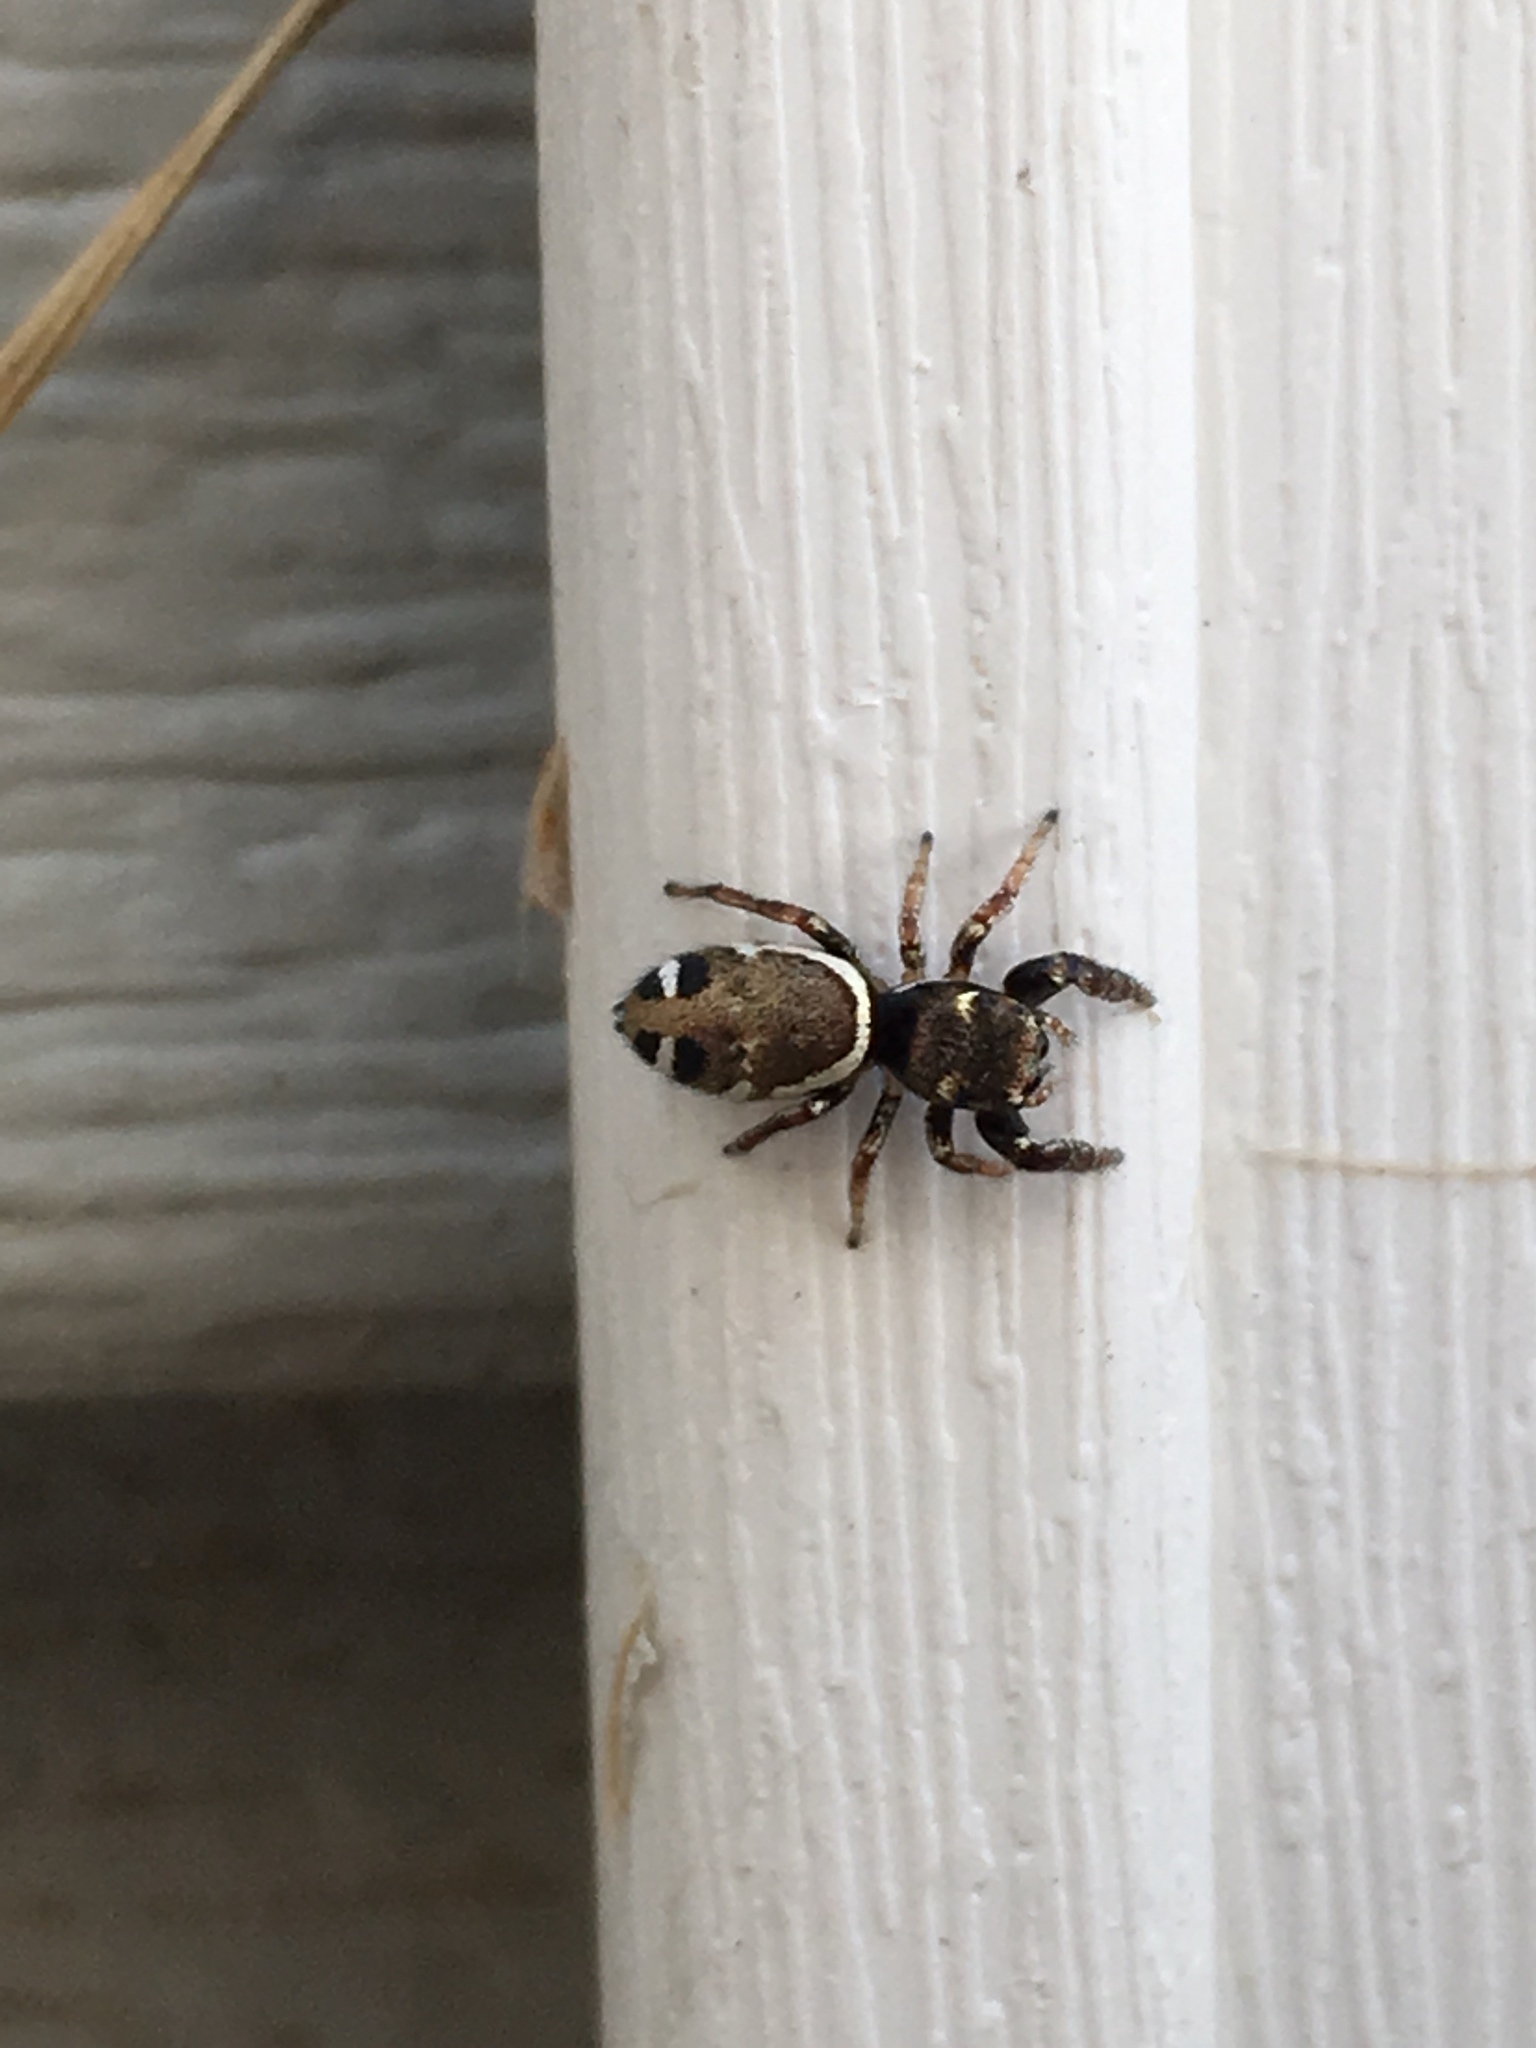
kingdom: Animalia
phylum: Arthropoda
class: Arachnida
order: Araneae
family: Salticidae
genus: Sassacus
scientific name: Sassacus vitis
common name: Jumping spiders
